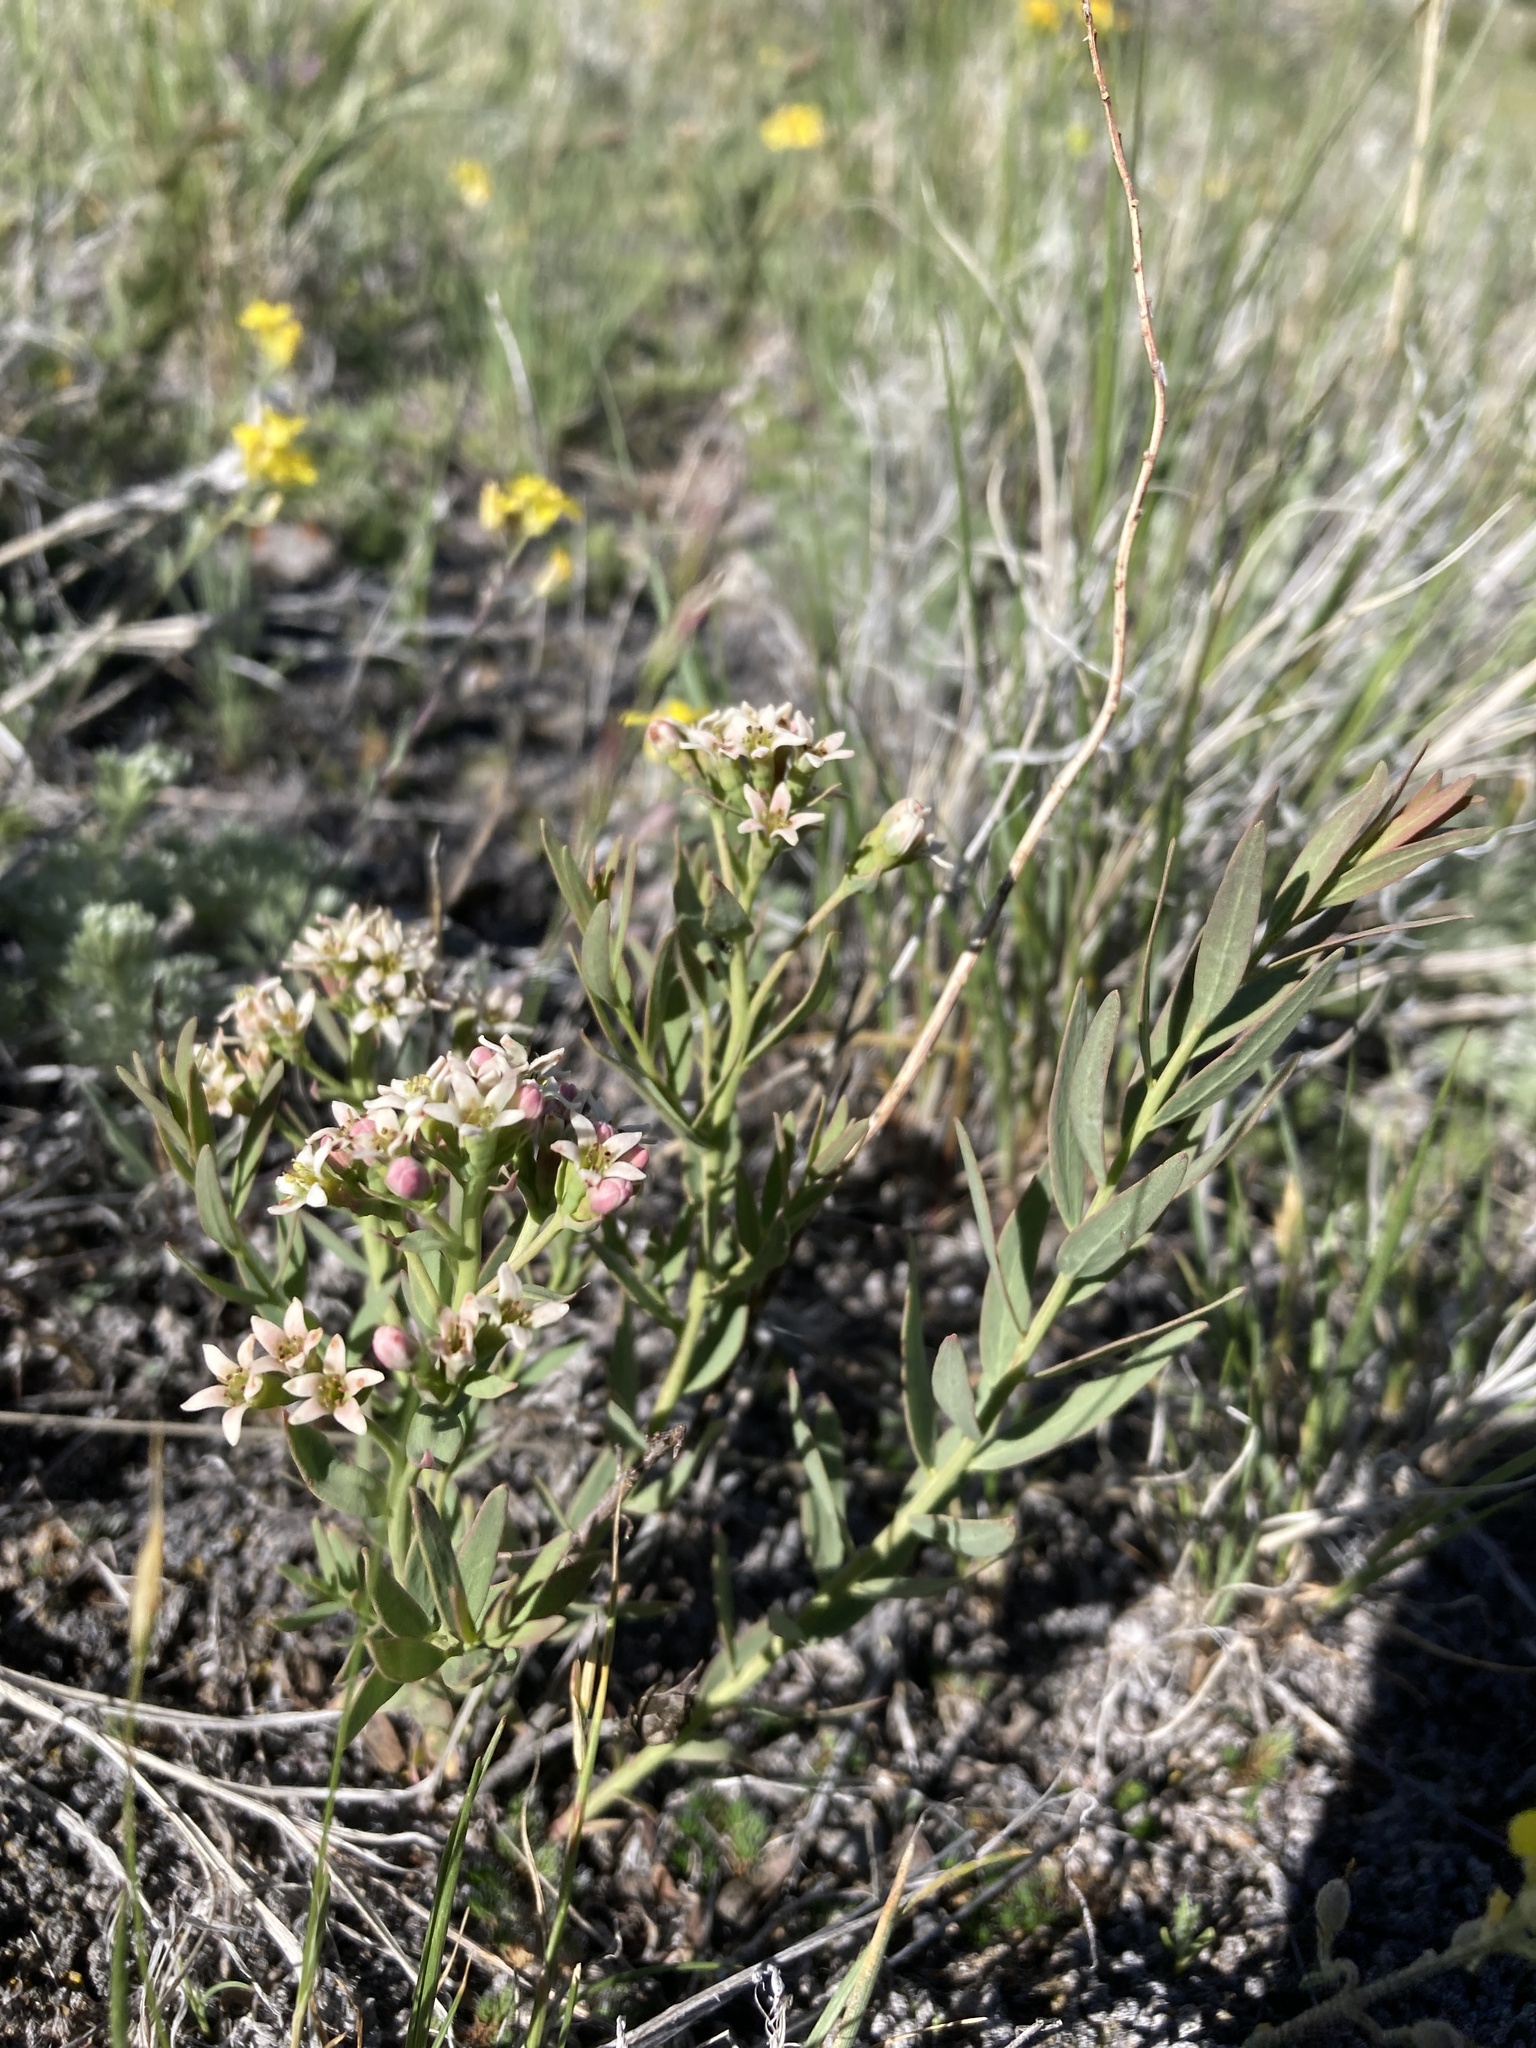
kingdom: Plantae
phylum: Tracheophyta
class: Magnoliopsida
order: Santalales
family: Comandraceae
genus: Comandra
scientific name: Comandra umbellata
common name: Bastard toadflax
